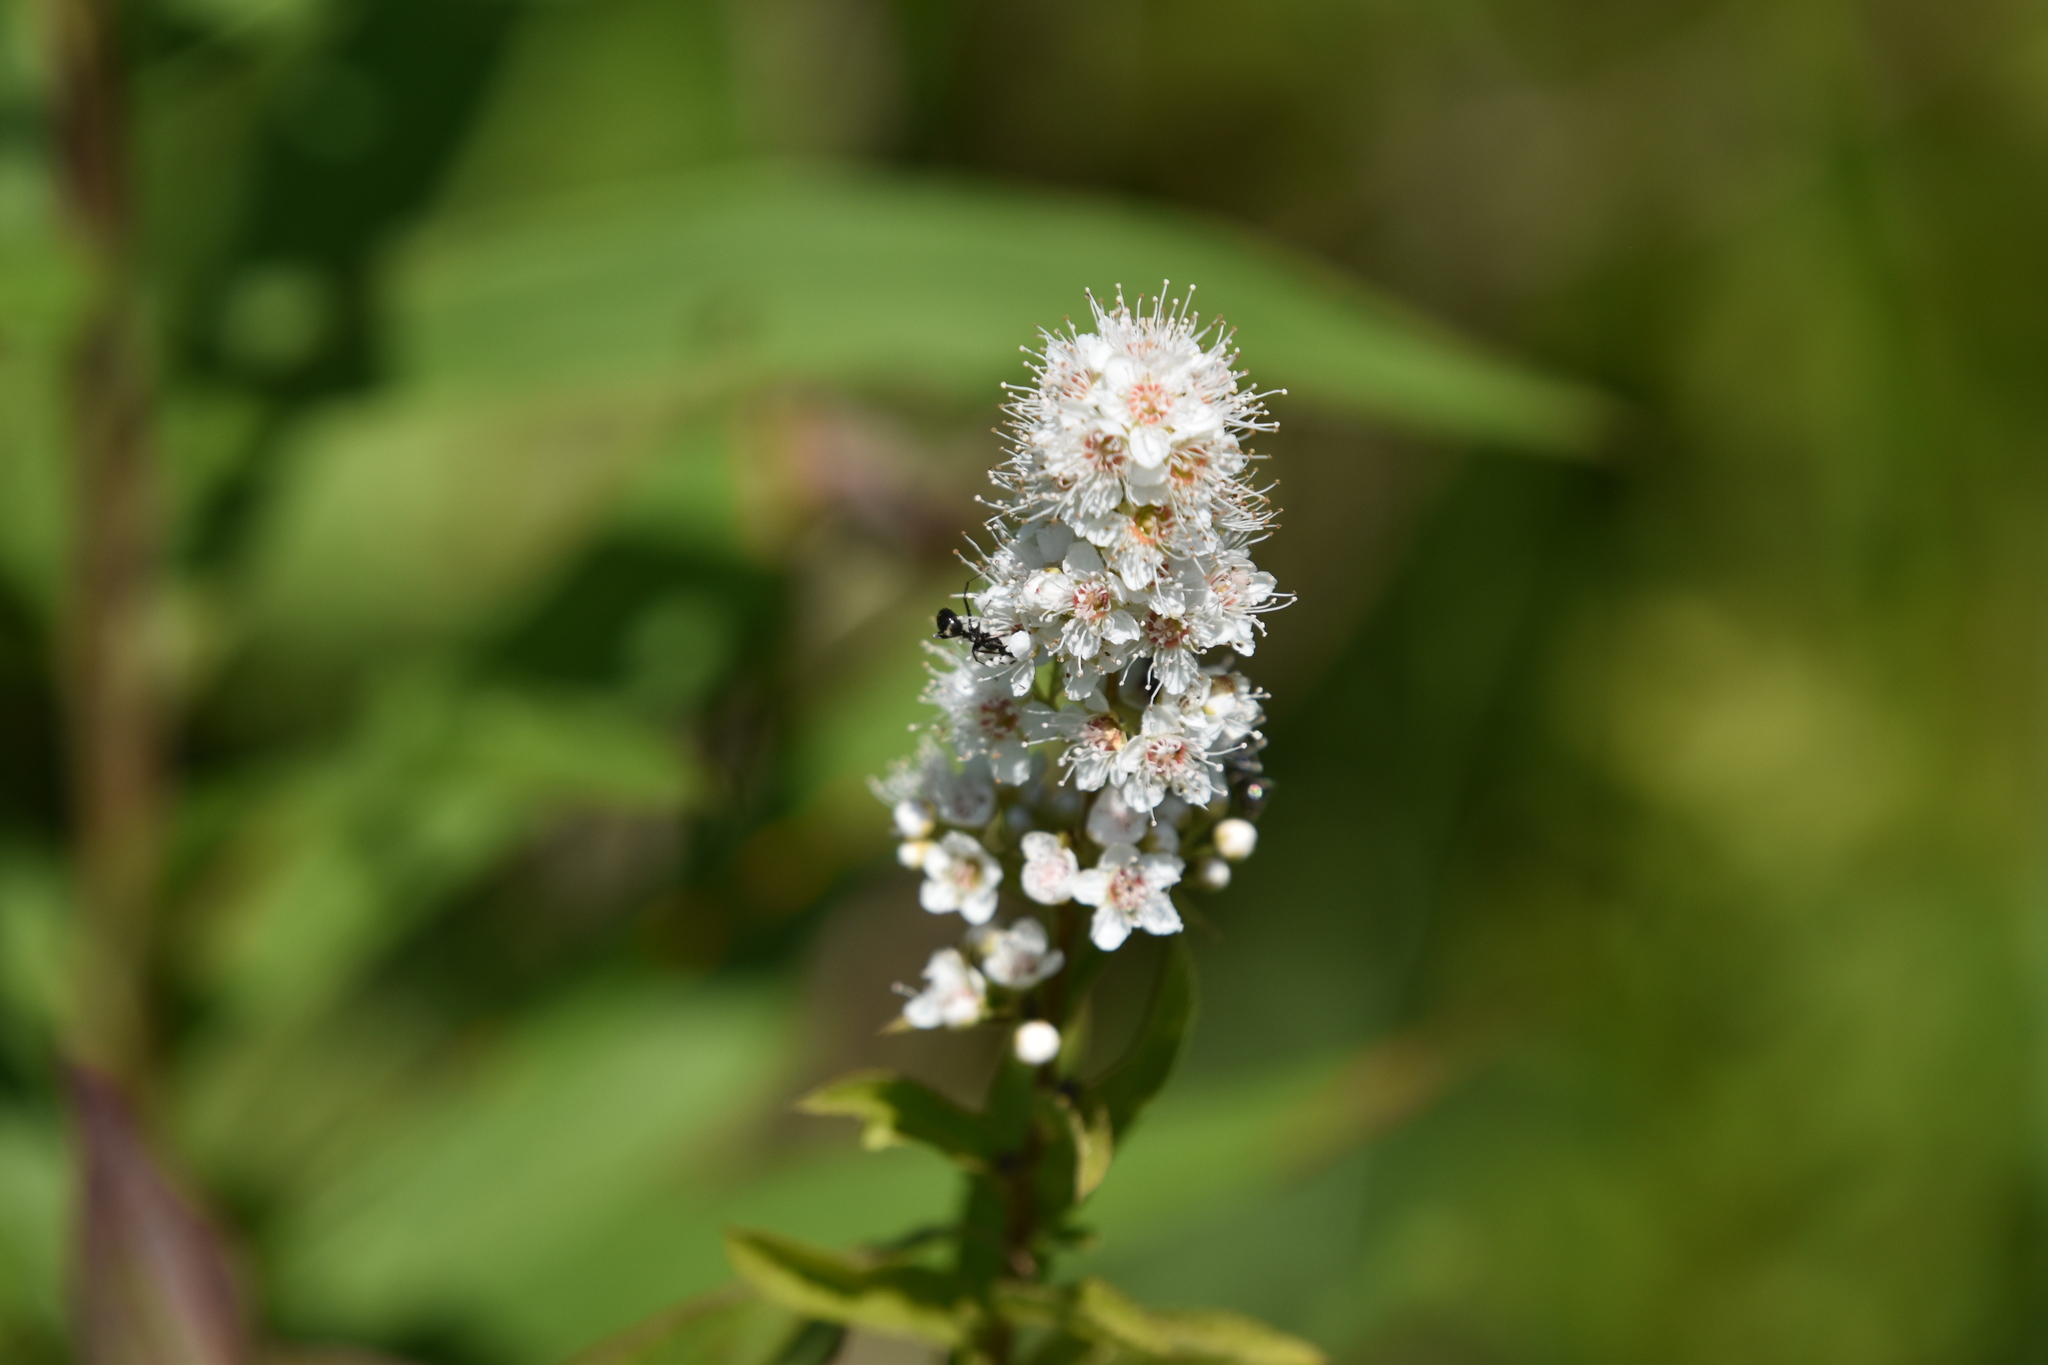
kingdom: Plantae
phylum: Tracheophyta
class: Magnoliopsida
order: Rosales
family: Rosaceae
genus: Spiraea
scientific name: Spiraea alba
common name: Pale bridewort
